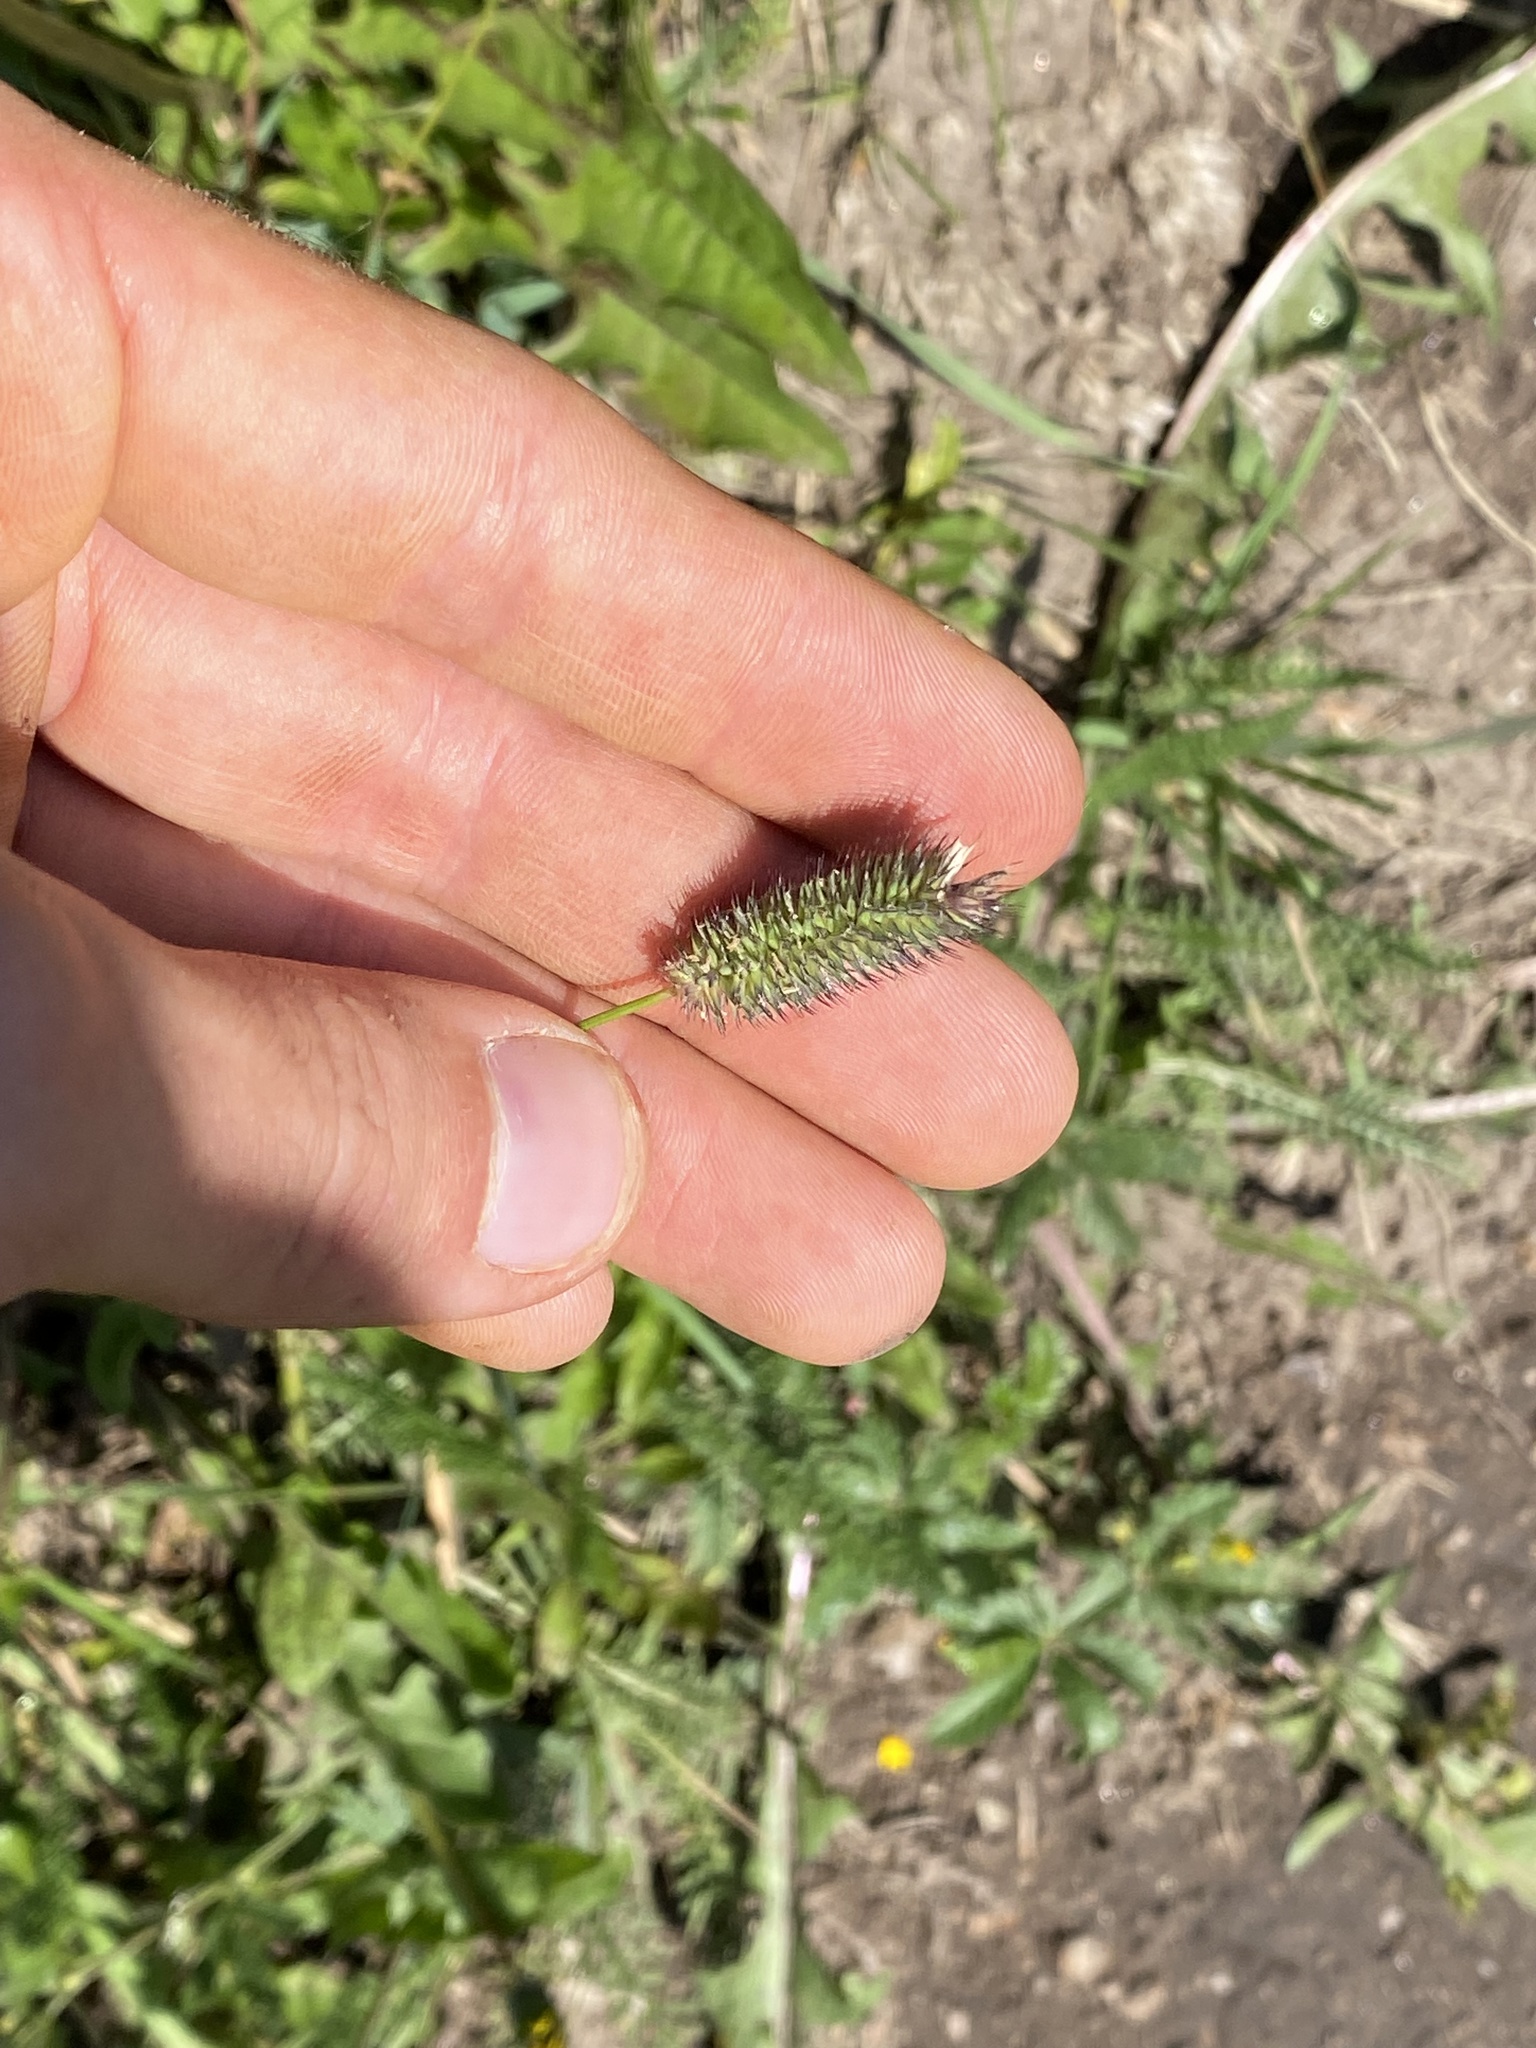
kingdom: Plantae
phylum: Tracheophyta
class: Liliopsida
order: Poales
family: Poaceae
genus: Phleum
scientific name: Phleum
